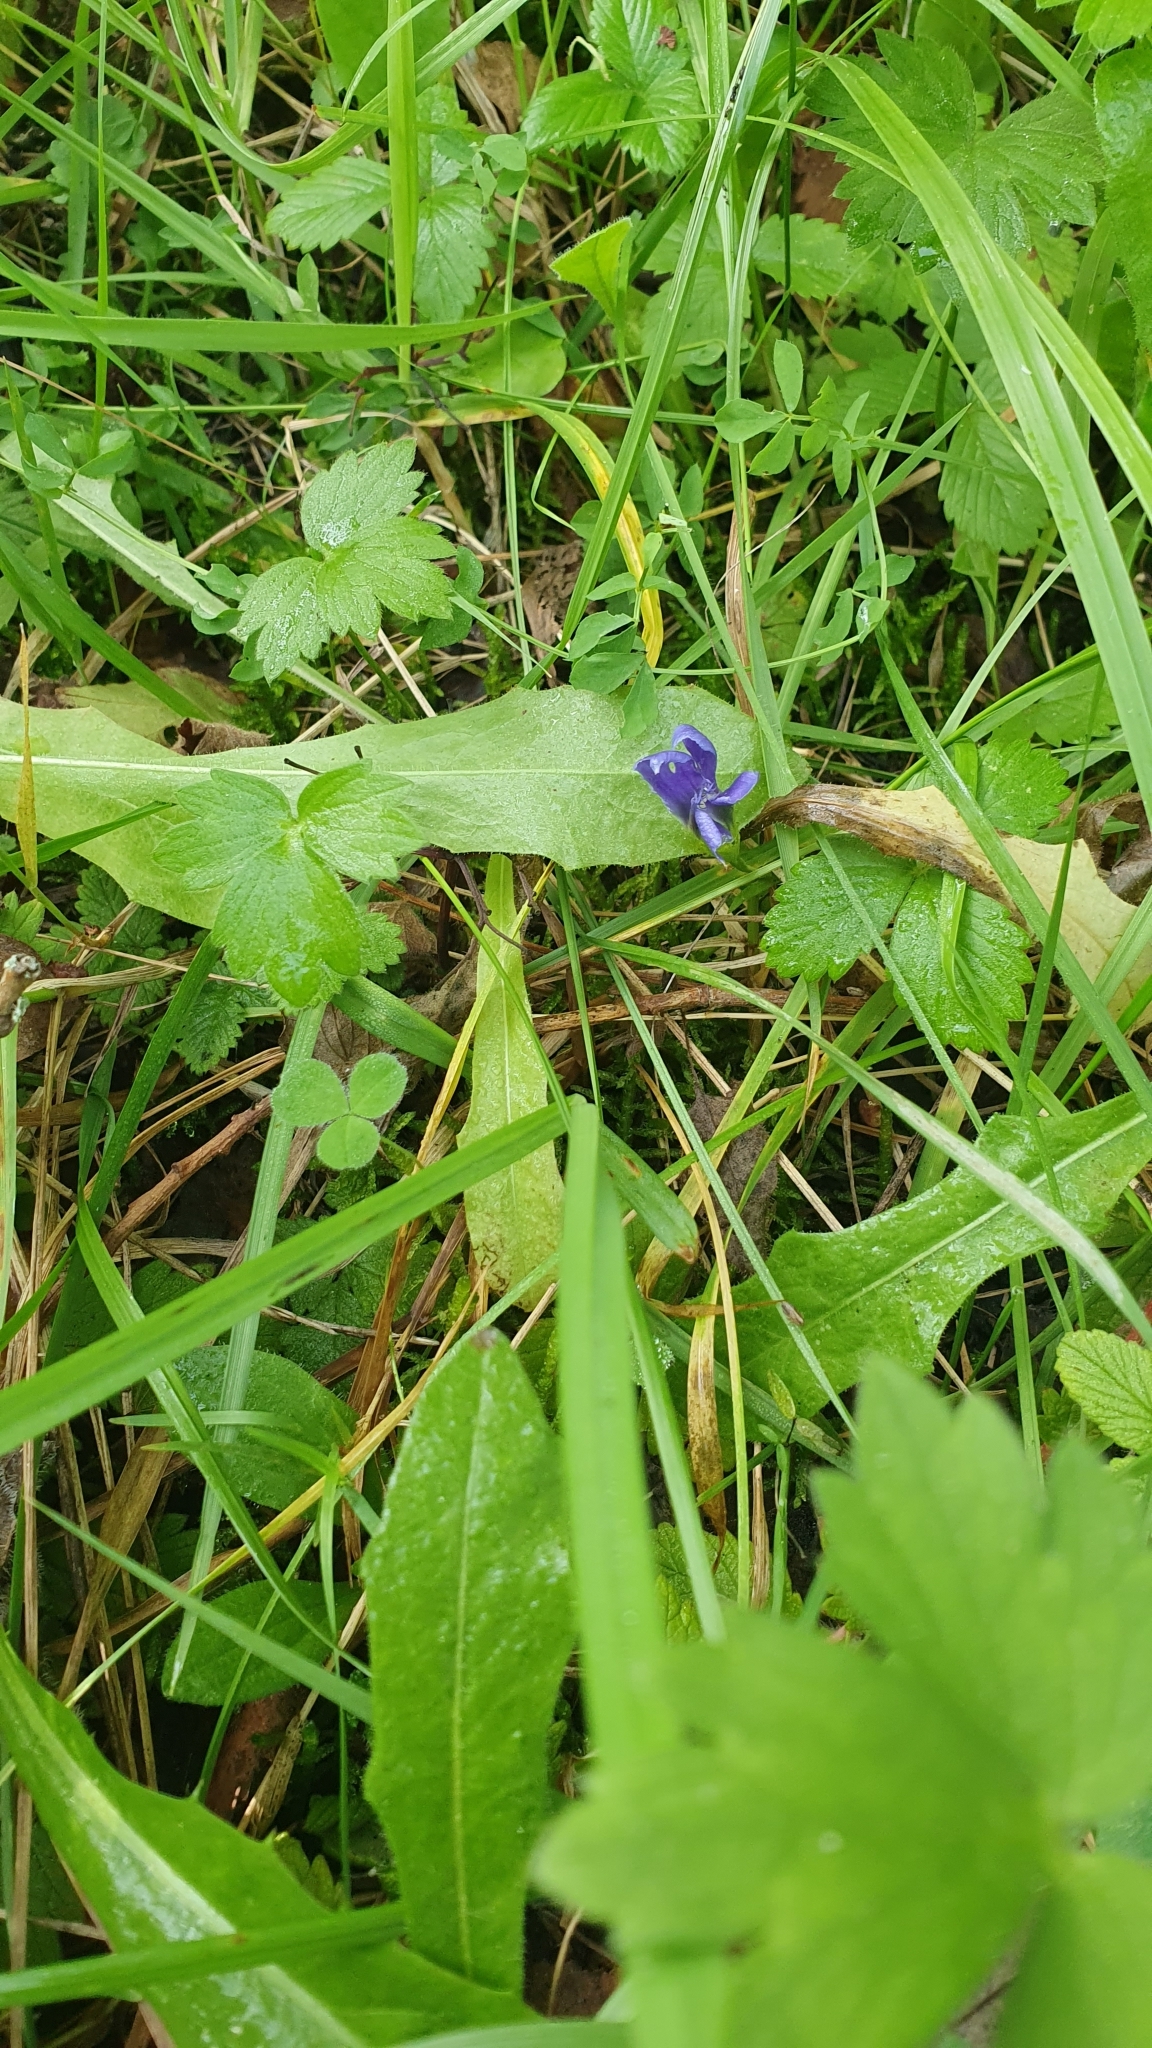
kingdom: Plantae
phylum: Tracheophyta
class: Magnoliopsida
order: Gentianales
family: Gentianaceae
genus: Gentianopsis
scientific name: Gentianopsis ciliata
